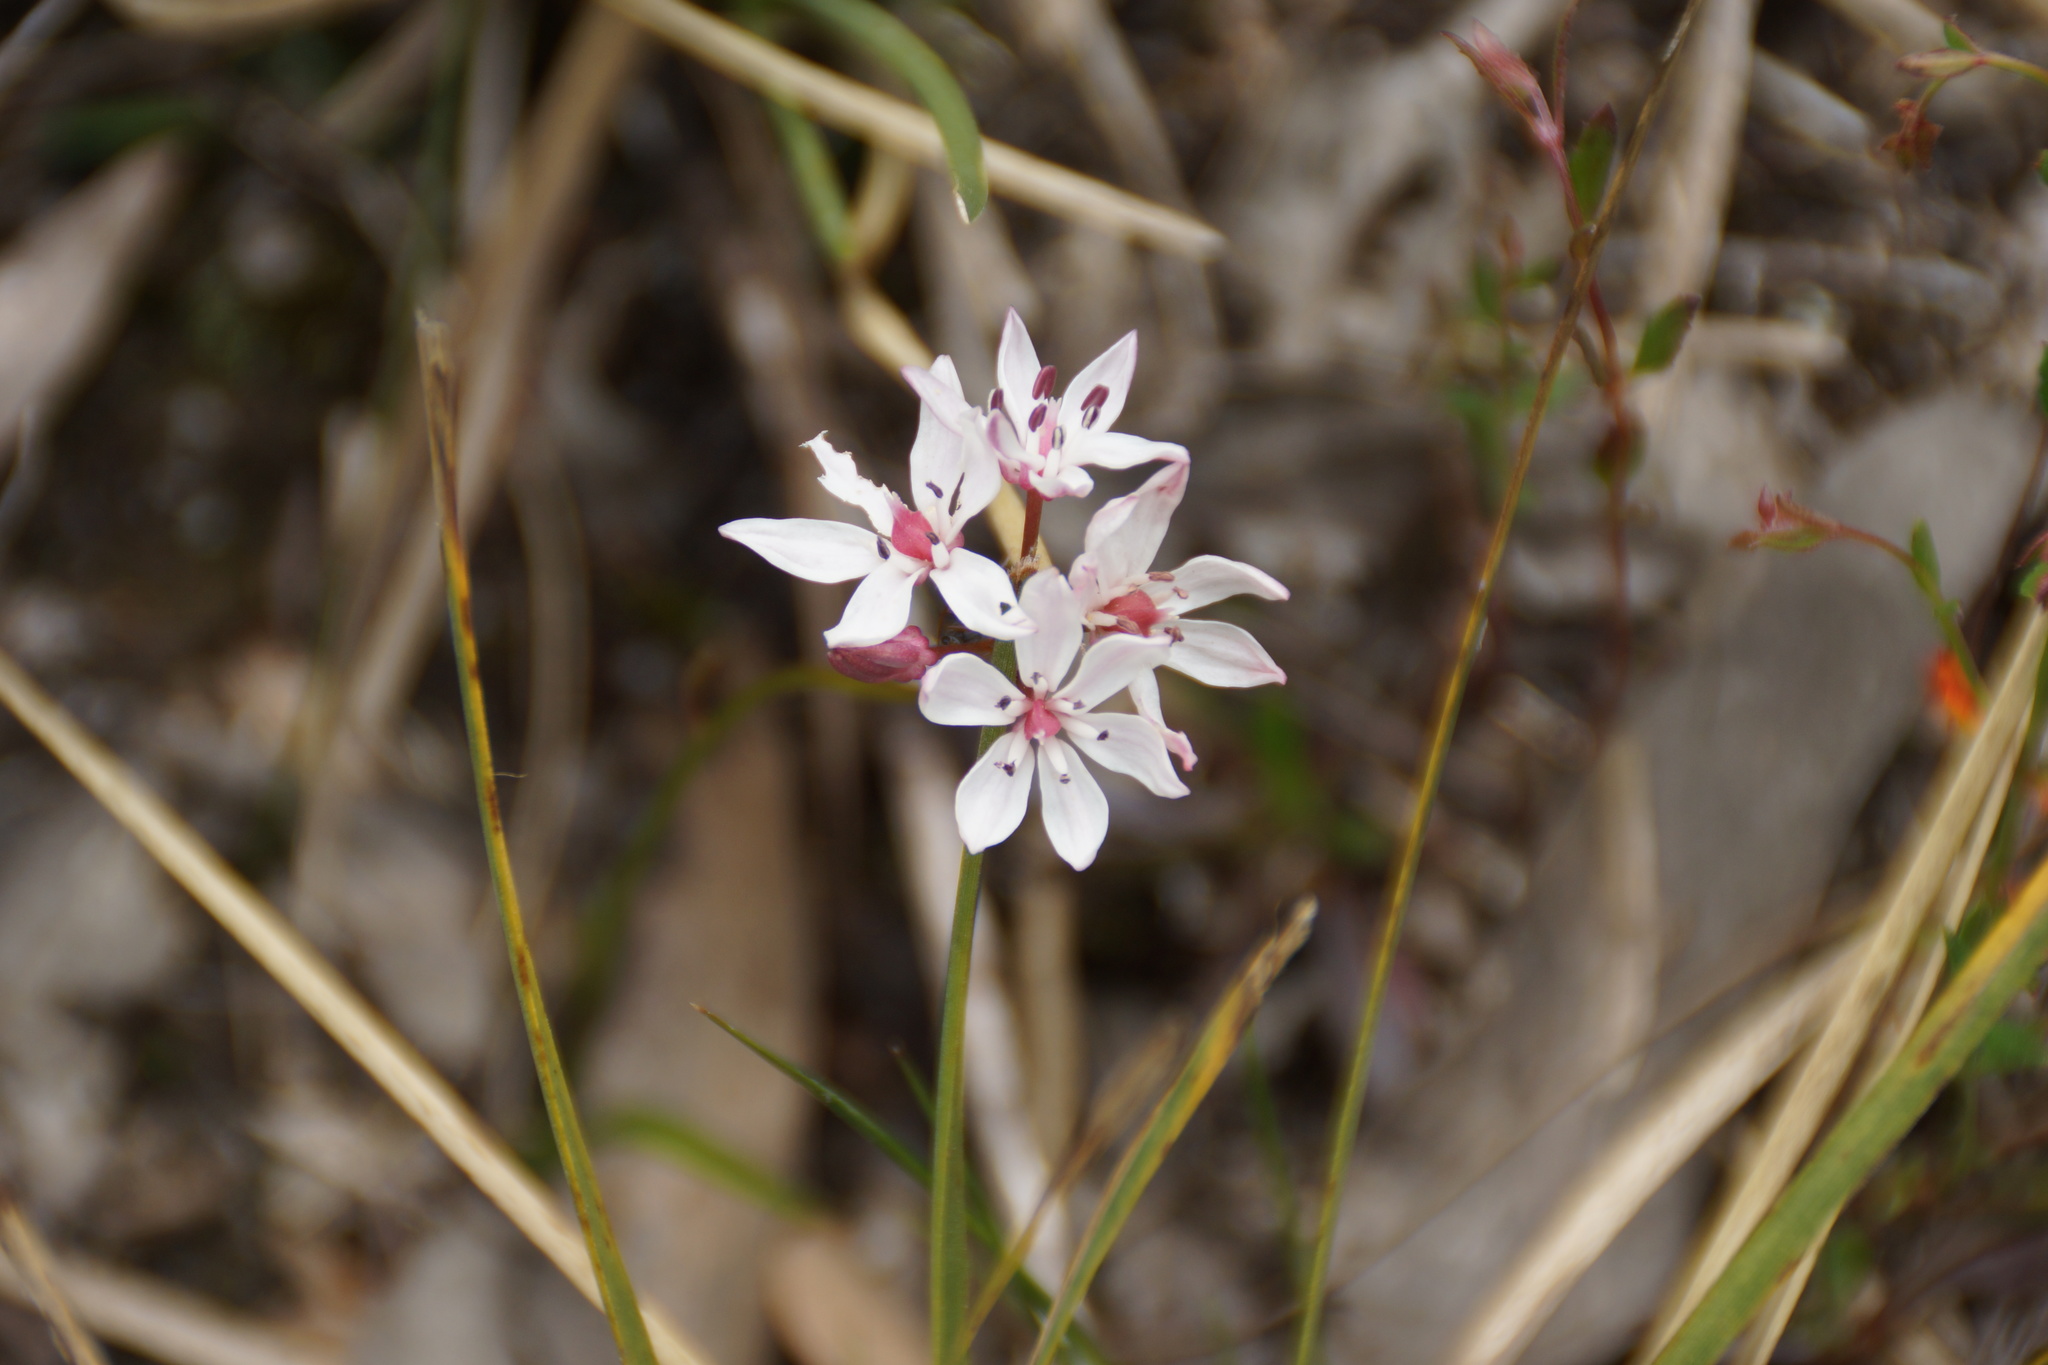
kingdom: Plantae
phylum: Tracheophyta
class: Liliopsida
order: Liliales
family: Colchicaceae
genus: Burchardia
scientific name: Burchardia umbellata
